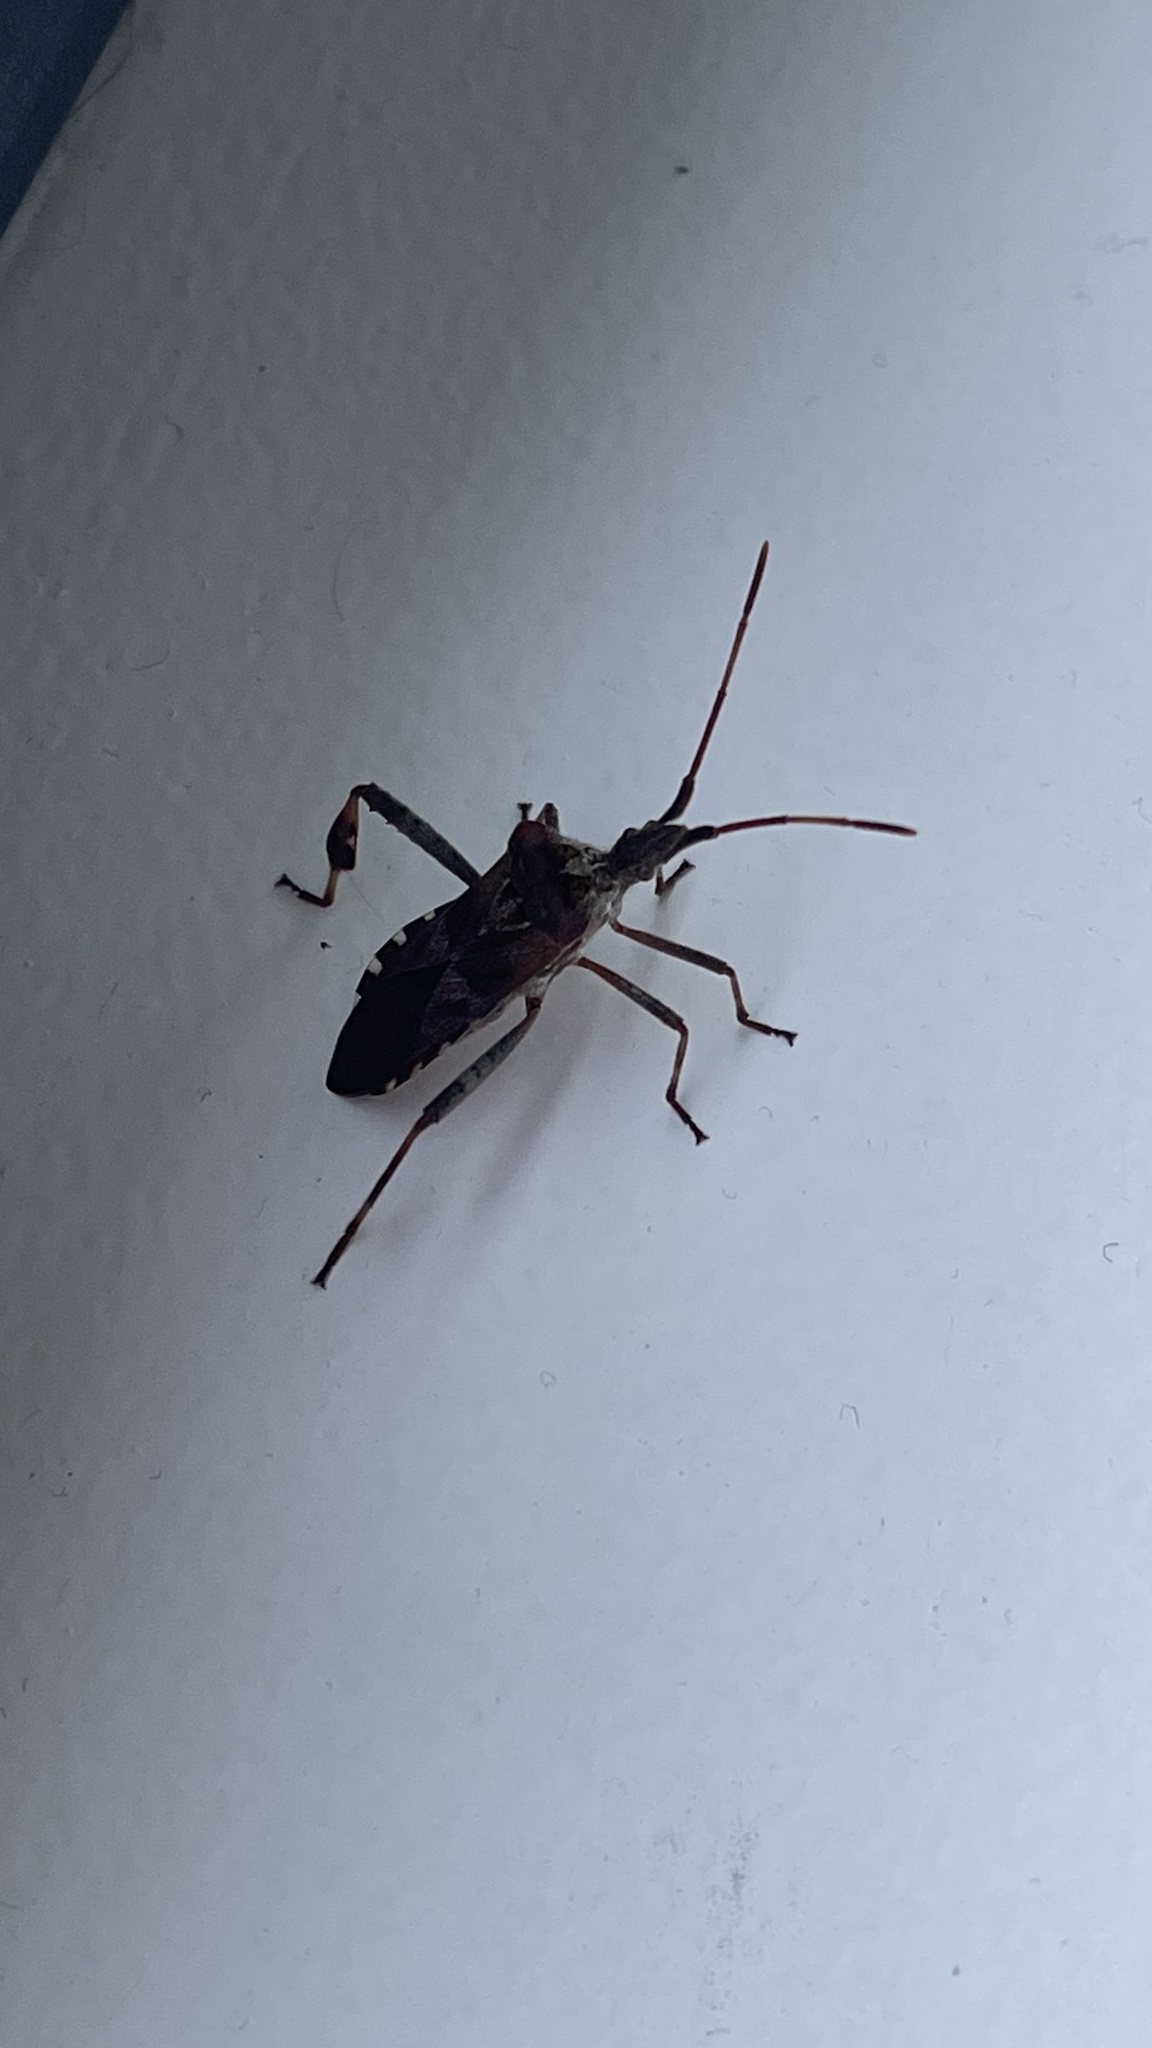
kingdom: Animalia
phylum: Arthropoda
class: Insecta
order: Hemiptera
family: Coreidae
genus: Leptoglossus
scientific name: Leptoglossus occidentalis
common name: Western conifer-seed bug
